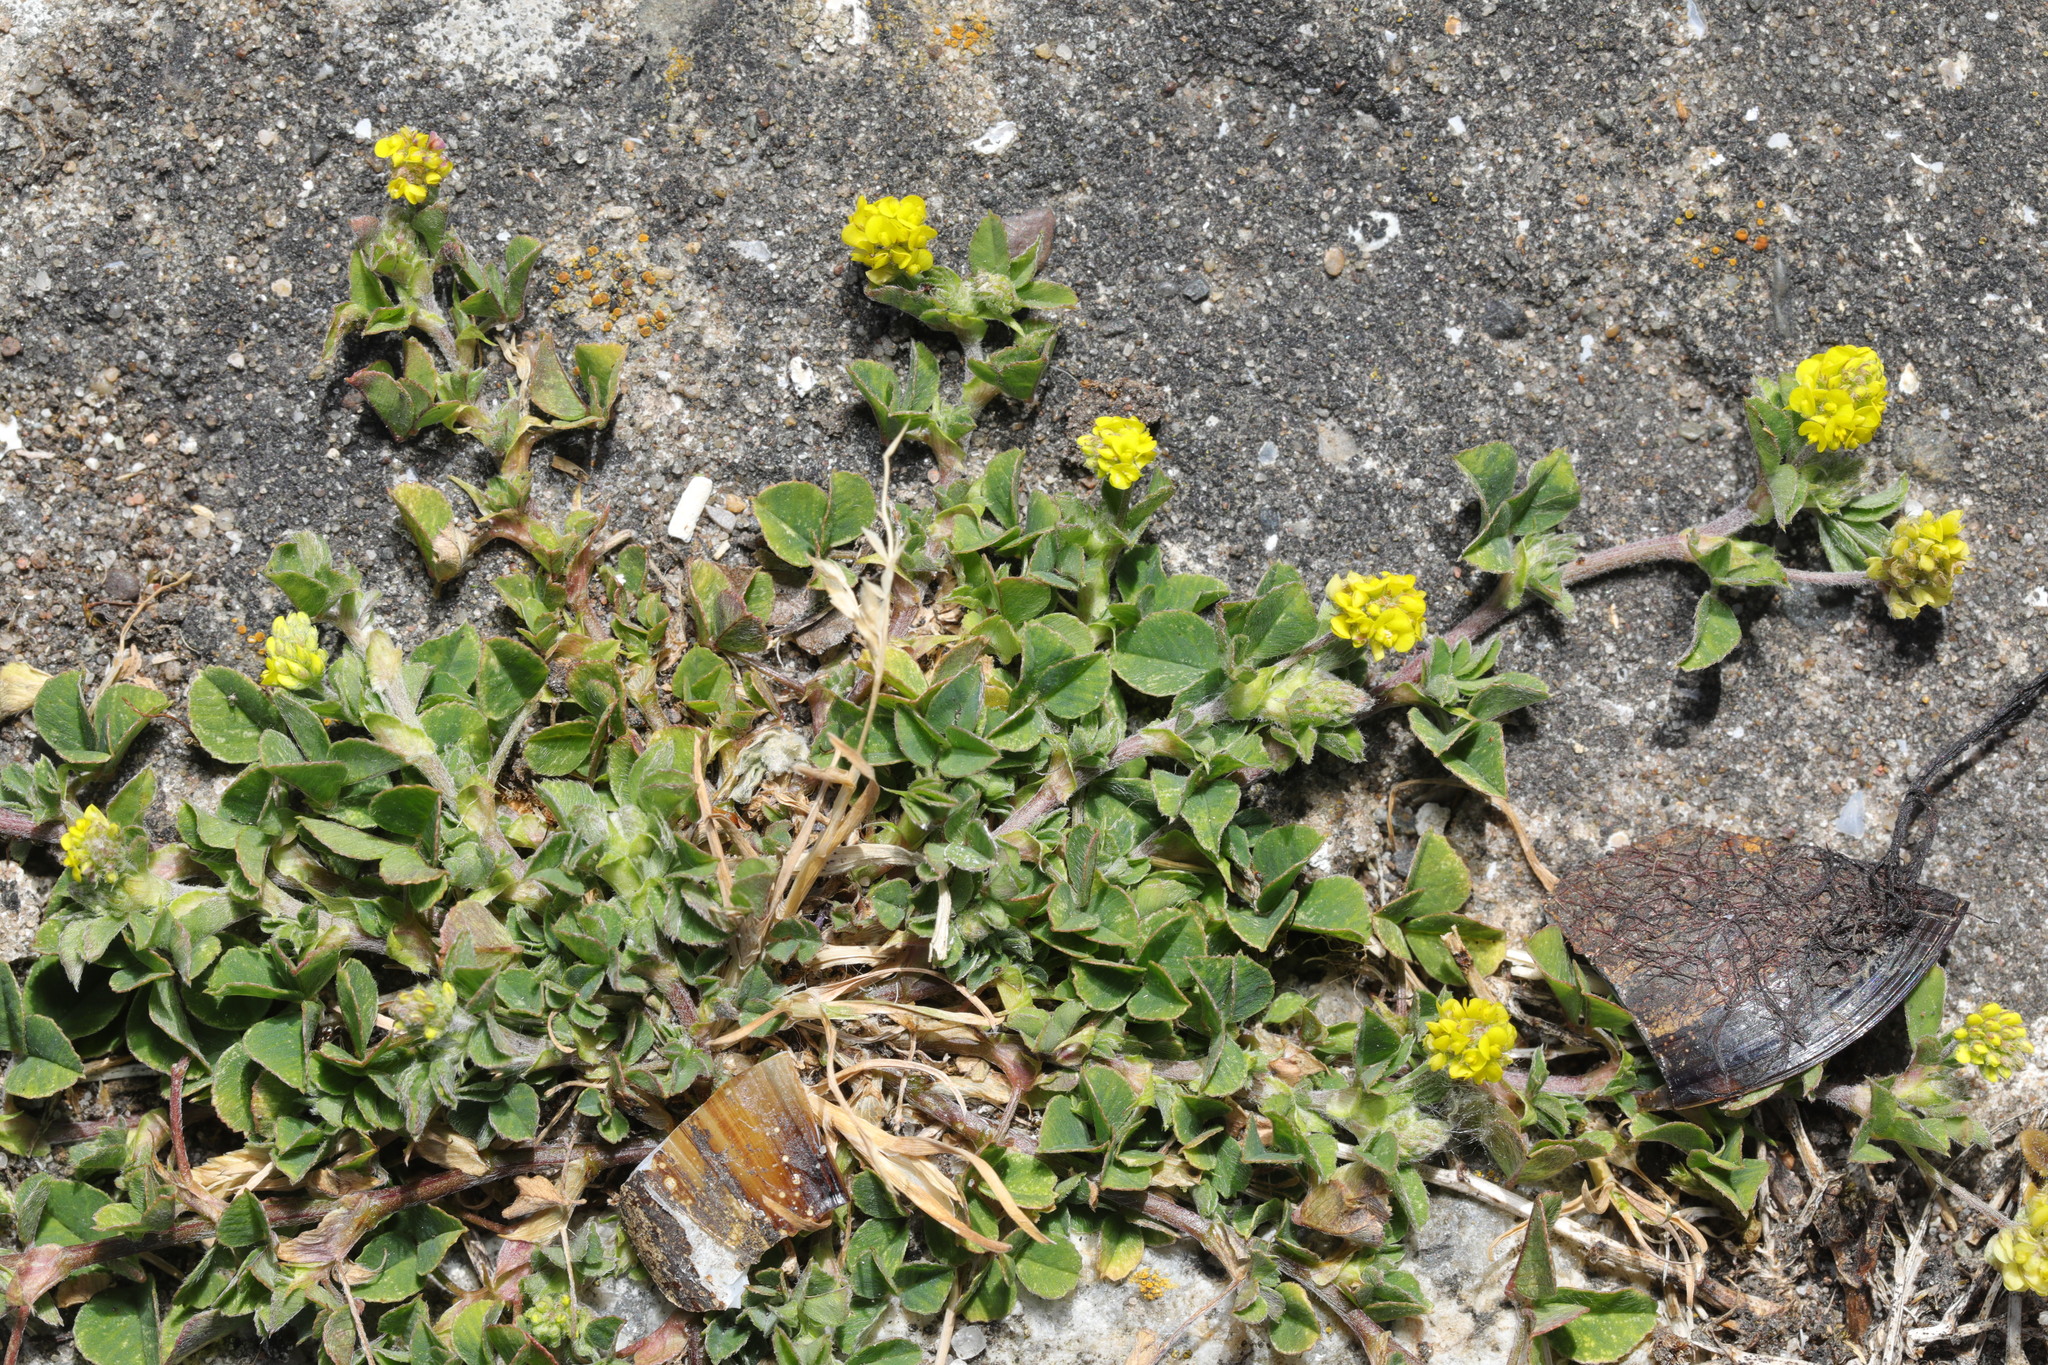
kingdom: Plantae
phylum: Tracheophyta
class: Magnoliopsida
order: Fabales
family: Fabaceae
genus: Medicago
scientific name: Medicago lupulina
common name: Black medick
